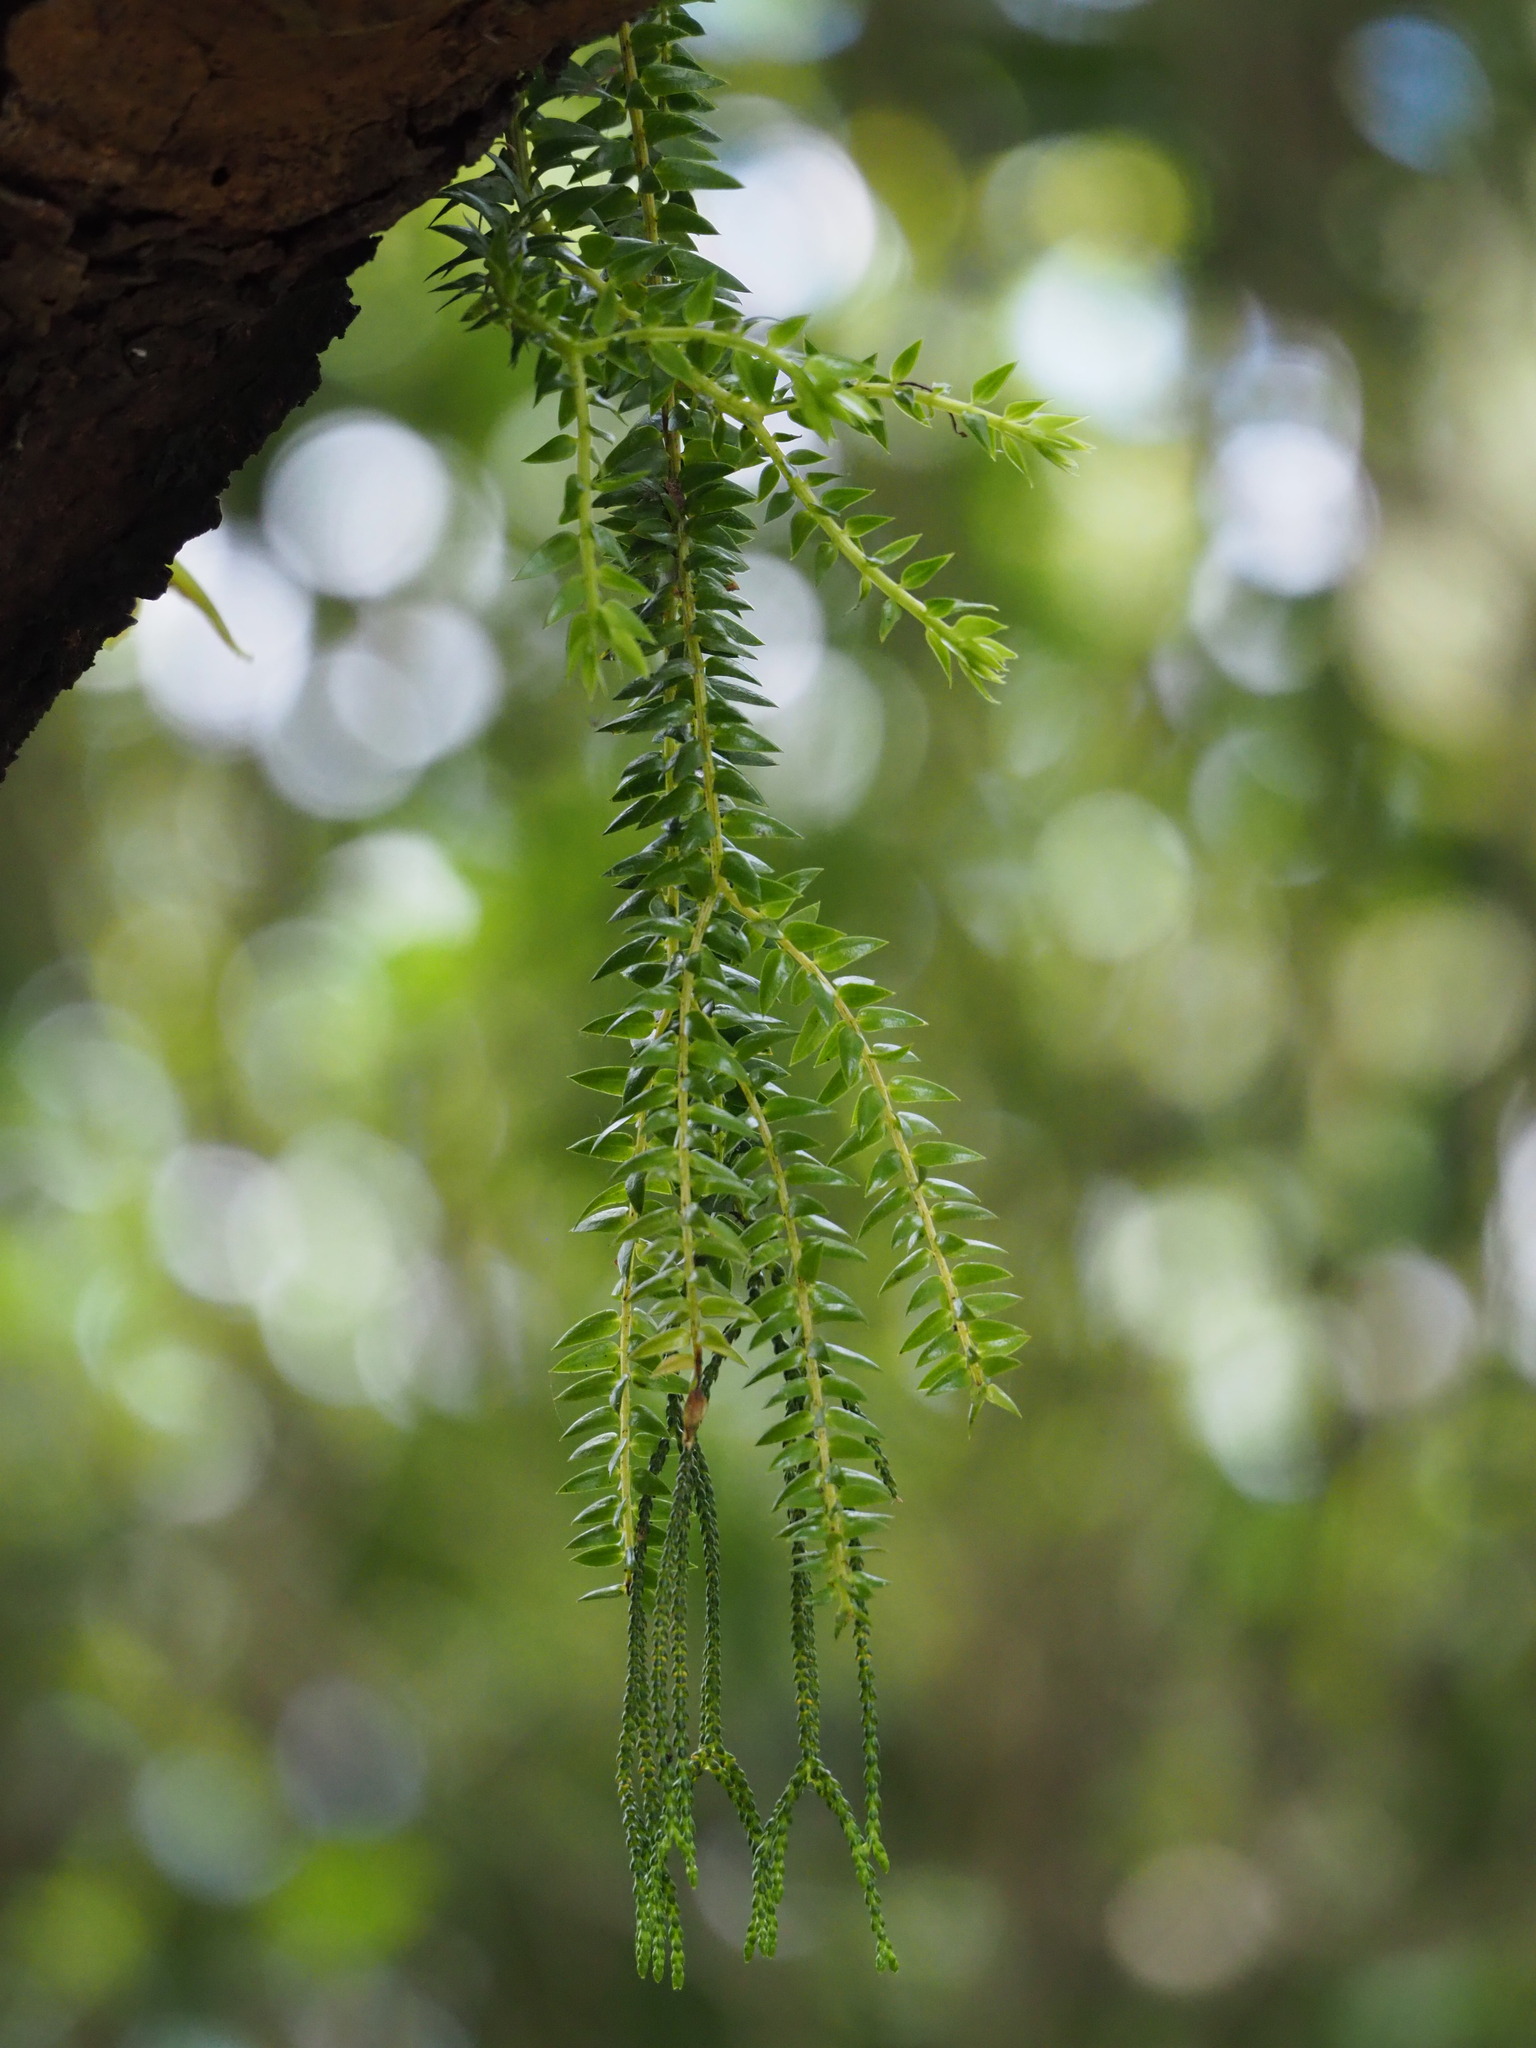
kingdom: Plantae
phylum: Tracheophyta
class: Lycopodiopsida
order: Lycopodiales
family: Lycopodiaceae
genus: Phlegmariurus
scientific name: Phlegmariurus phlegmaria
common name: Coarse tassel-fern
